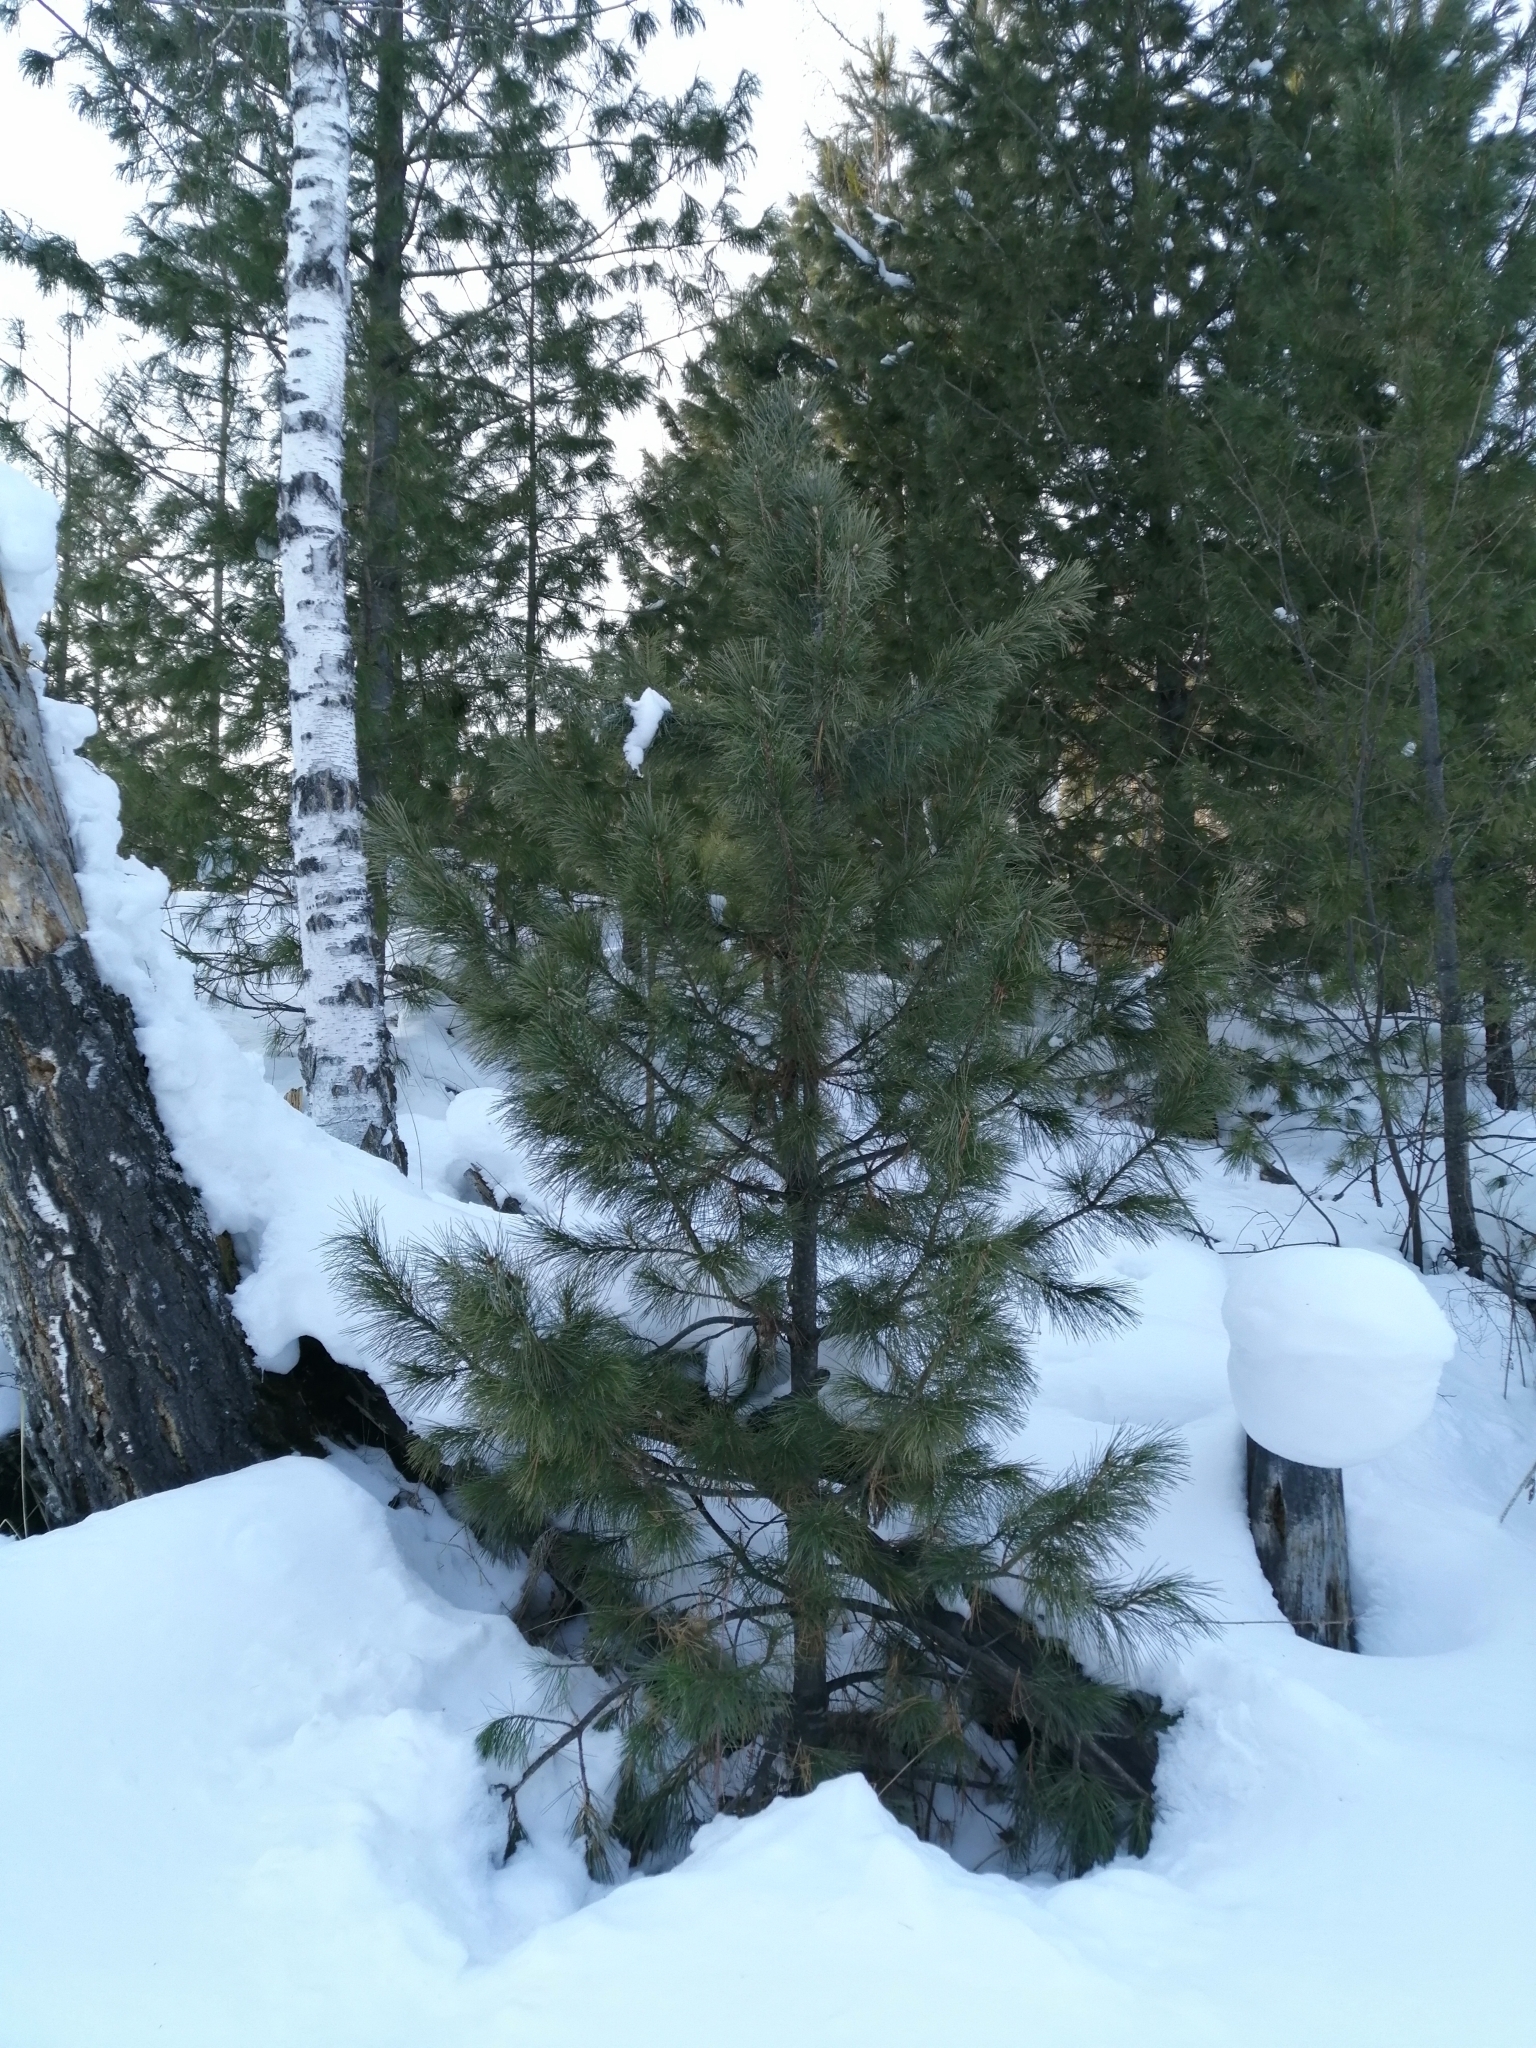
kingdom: Plantae
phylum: Tracheophyta
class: Pinopsida
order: Pinales
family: Pinaceae
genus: Pinus
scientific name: Pinus sibirica
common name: Siberian pine
